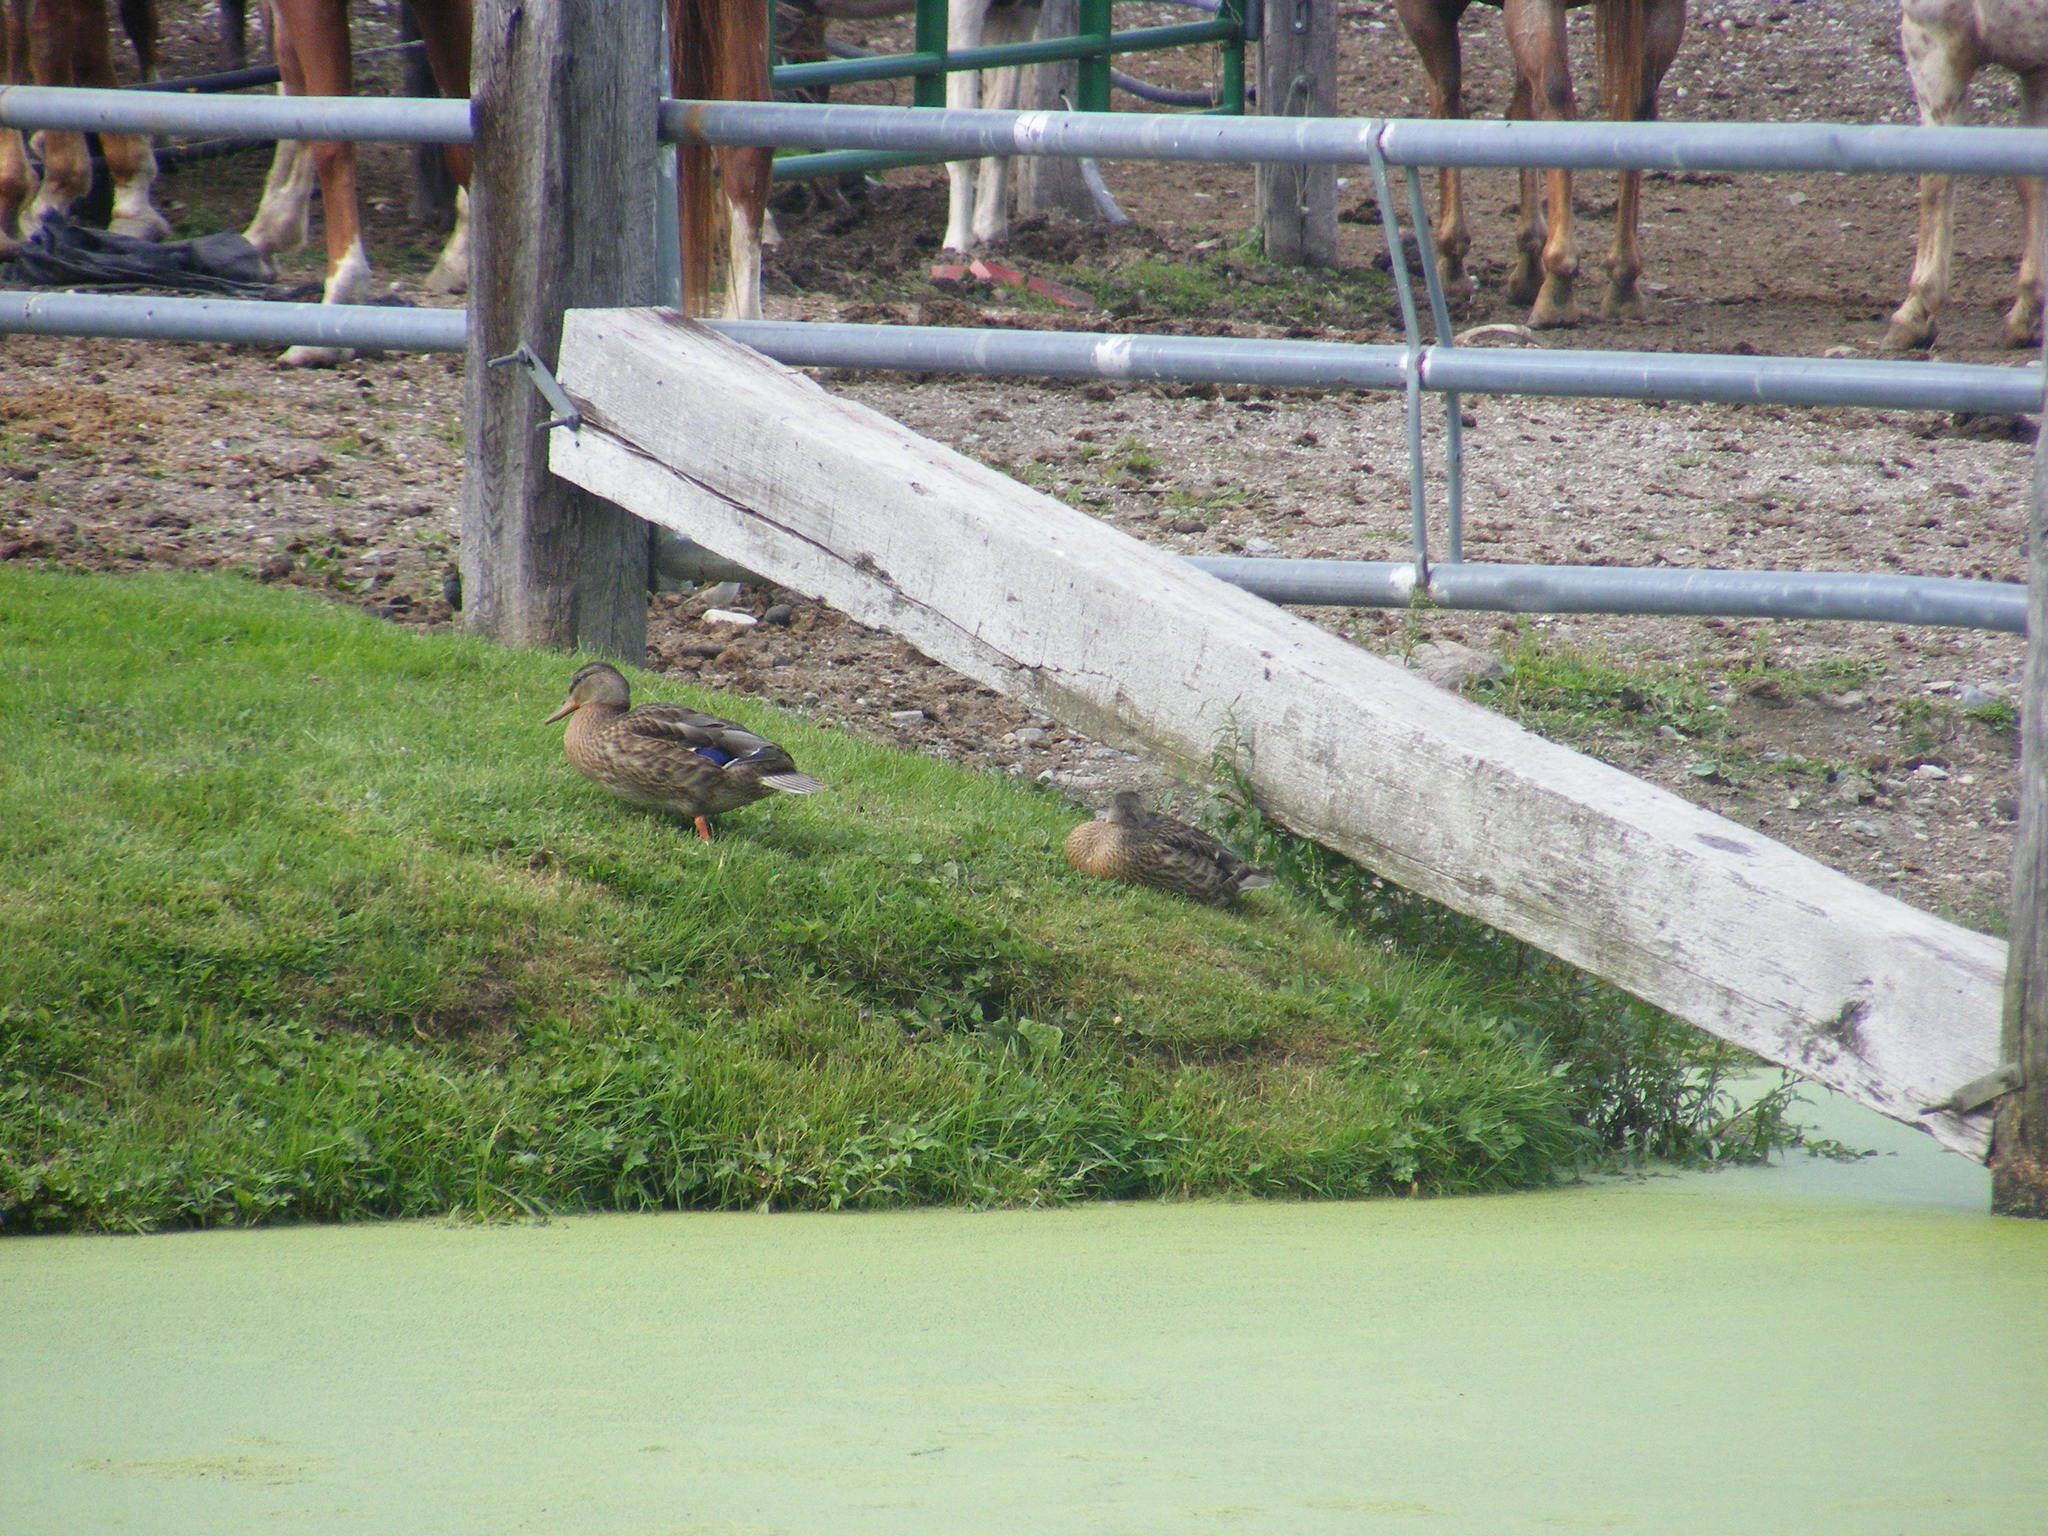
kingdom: Animalia
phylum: Chordata
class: Aves
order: Anseriformes
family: Anatidae
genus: Anas
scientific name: Anas platyrhynchos
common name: Mallard
